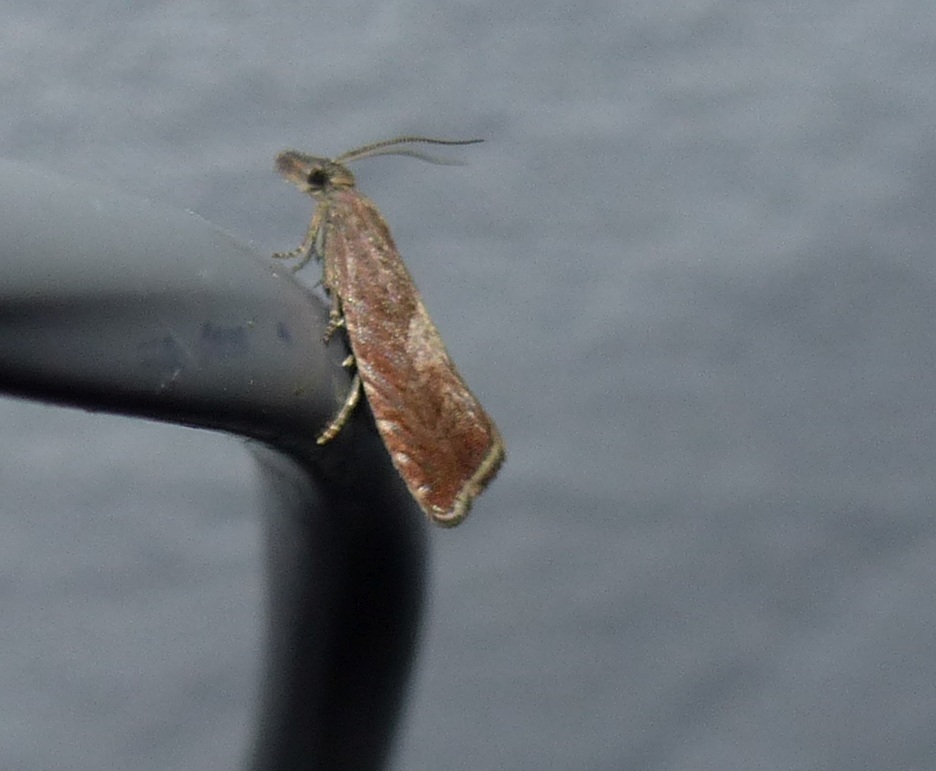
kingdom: Animalia
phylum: Arthropoda
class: Insecta
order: Lepidoptera
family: Tortricidae
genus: Dichrorampha
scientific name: Dichrorampha acuminatana
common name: Sharp-winged drill
